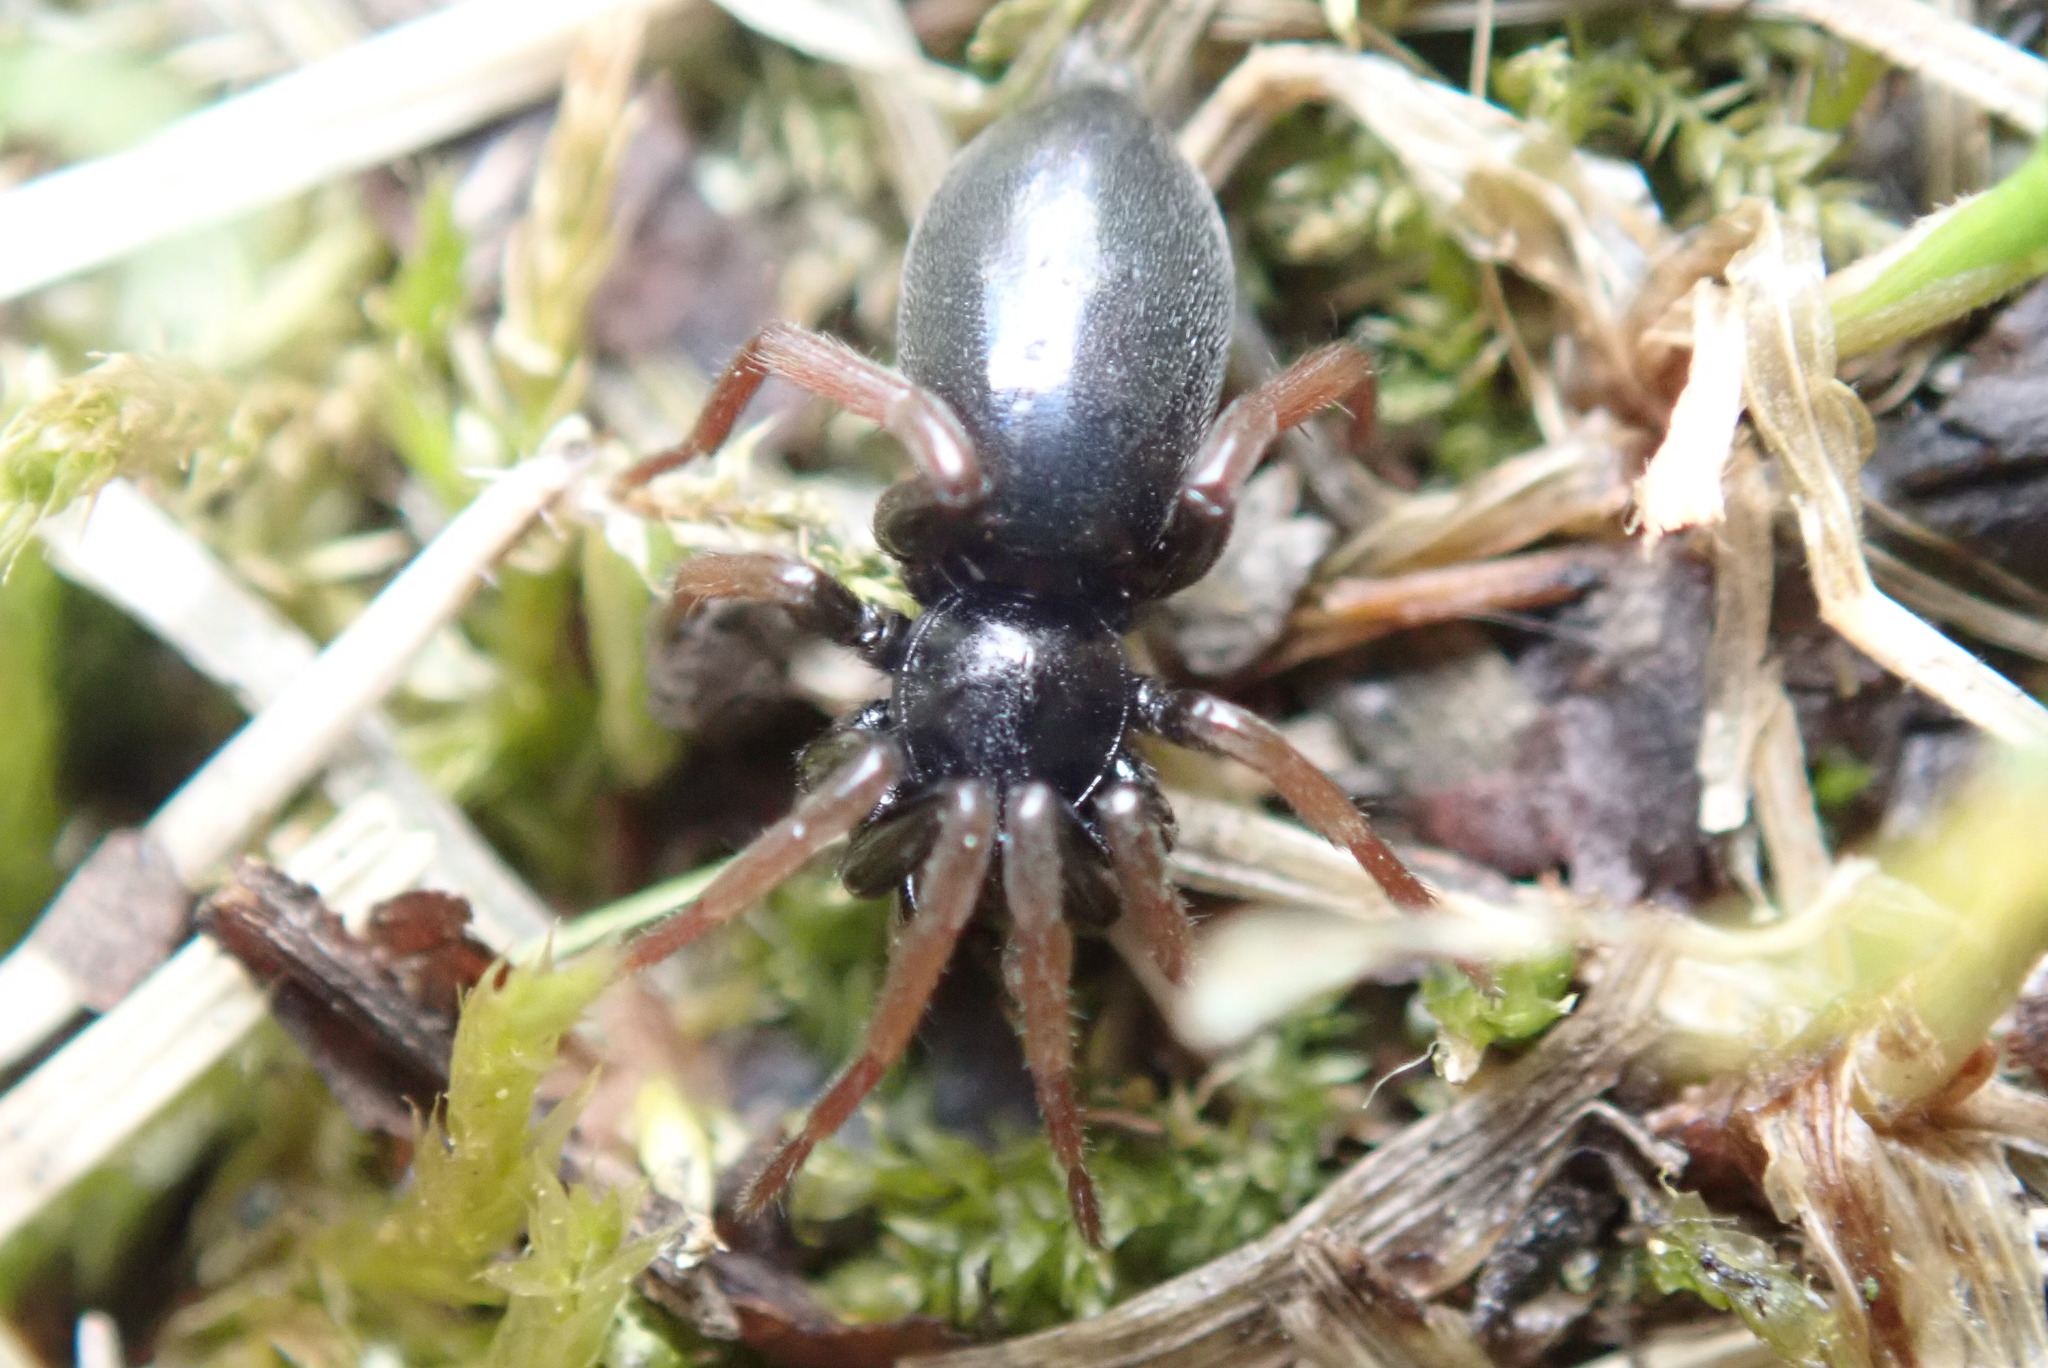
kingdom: Animalia
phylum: Arthropoda
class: Arachnida
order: Araneae
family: Gnaphosidae
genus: Trachyzelotes
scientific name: Trachyzelotes pedestris
